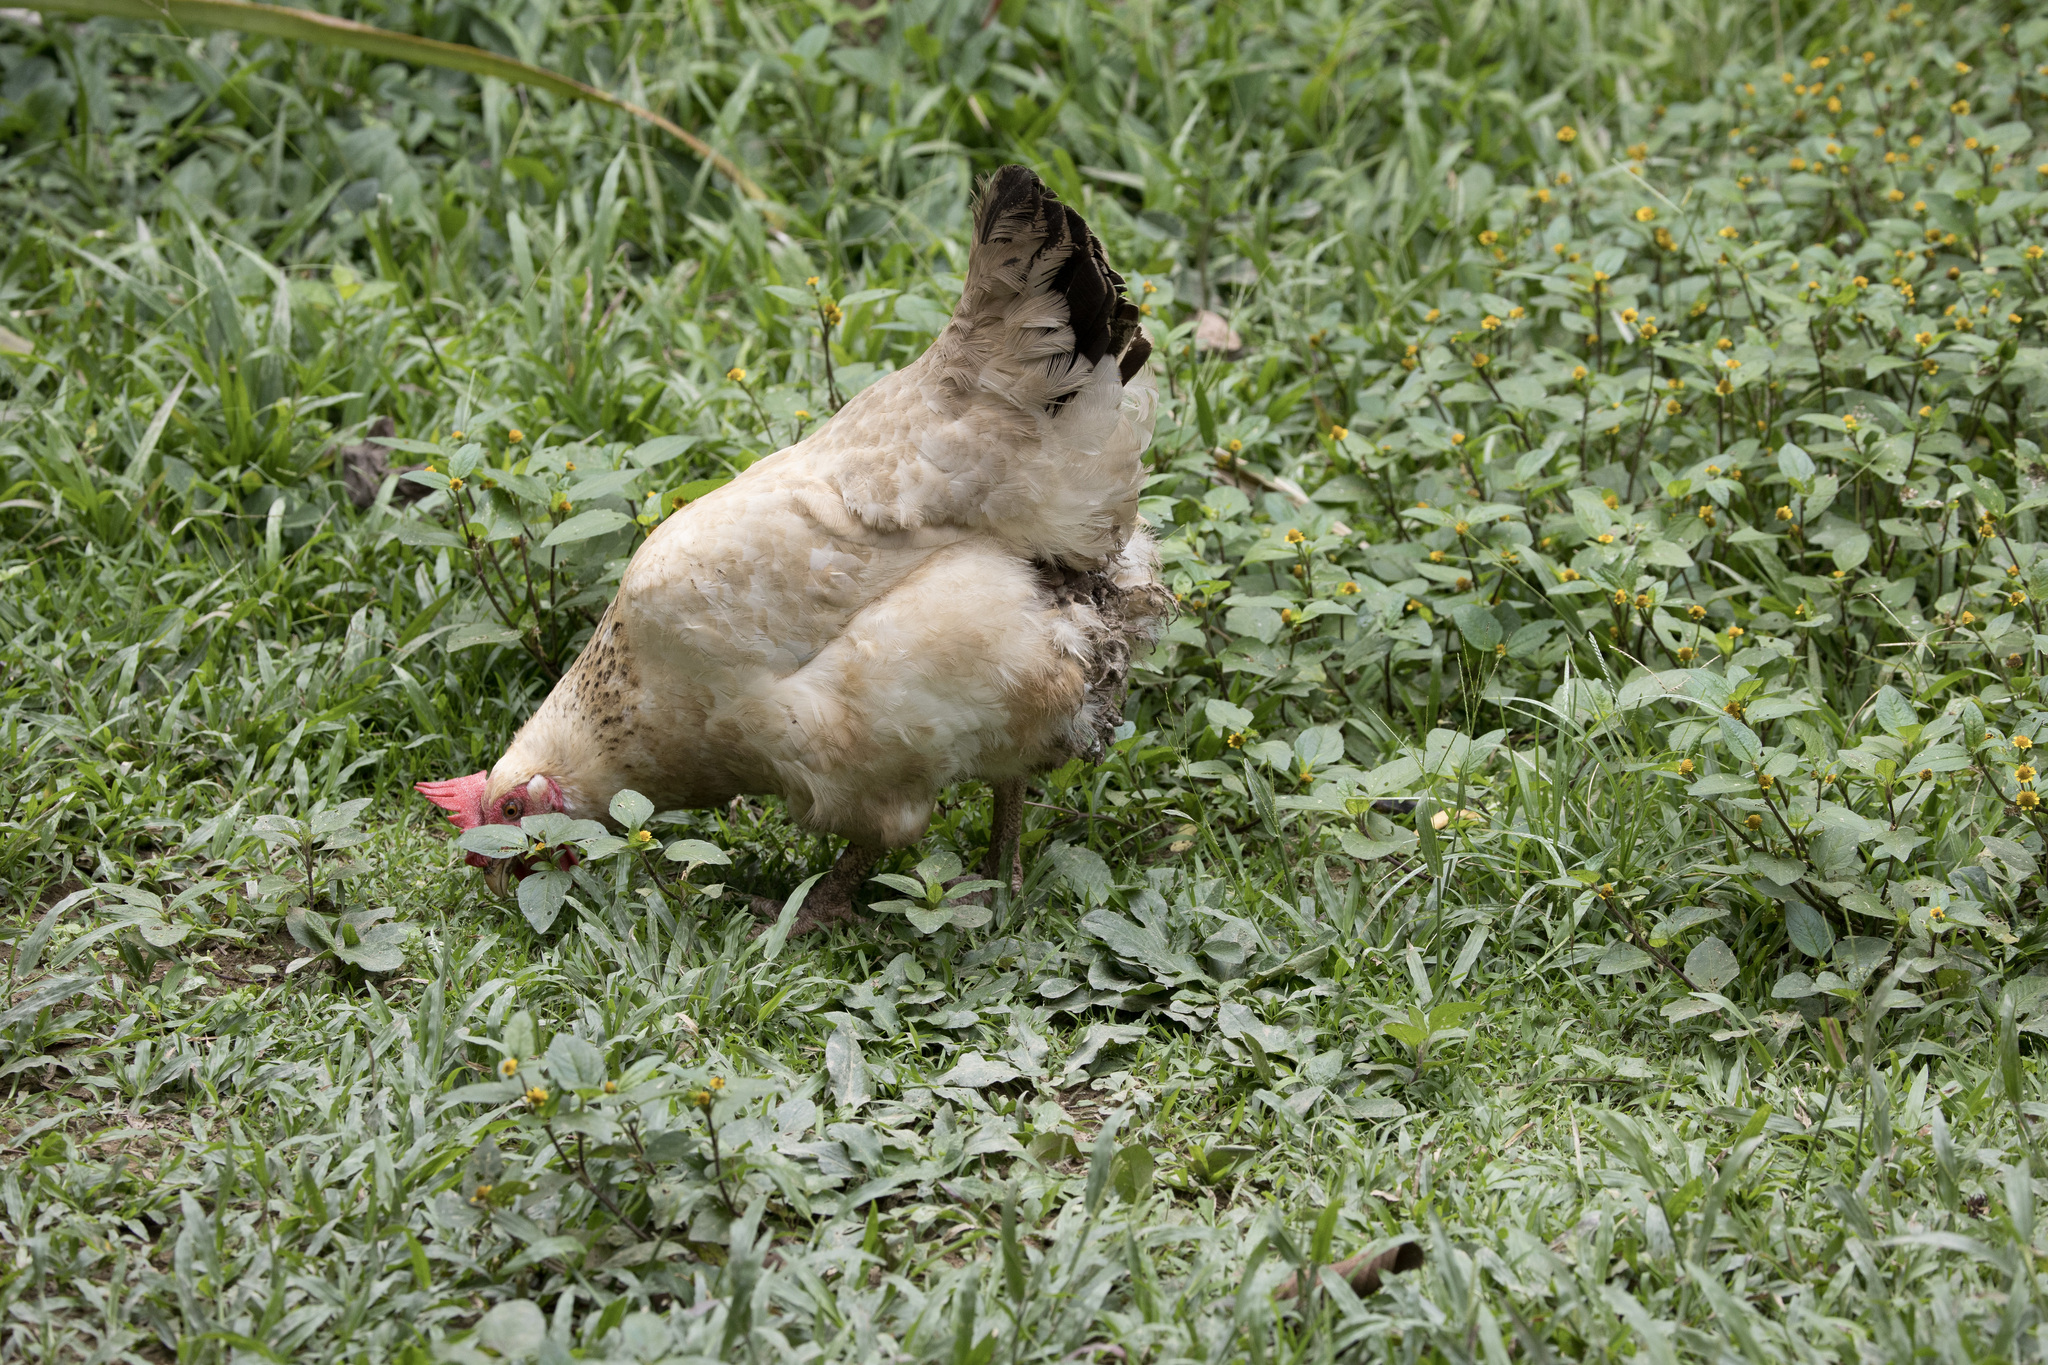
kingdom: Animalia
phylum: Chordata
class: Aves
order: Galliformes
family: Phasianidae
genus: Gallus
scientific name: Gallus gallus
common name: Red junglefowl
